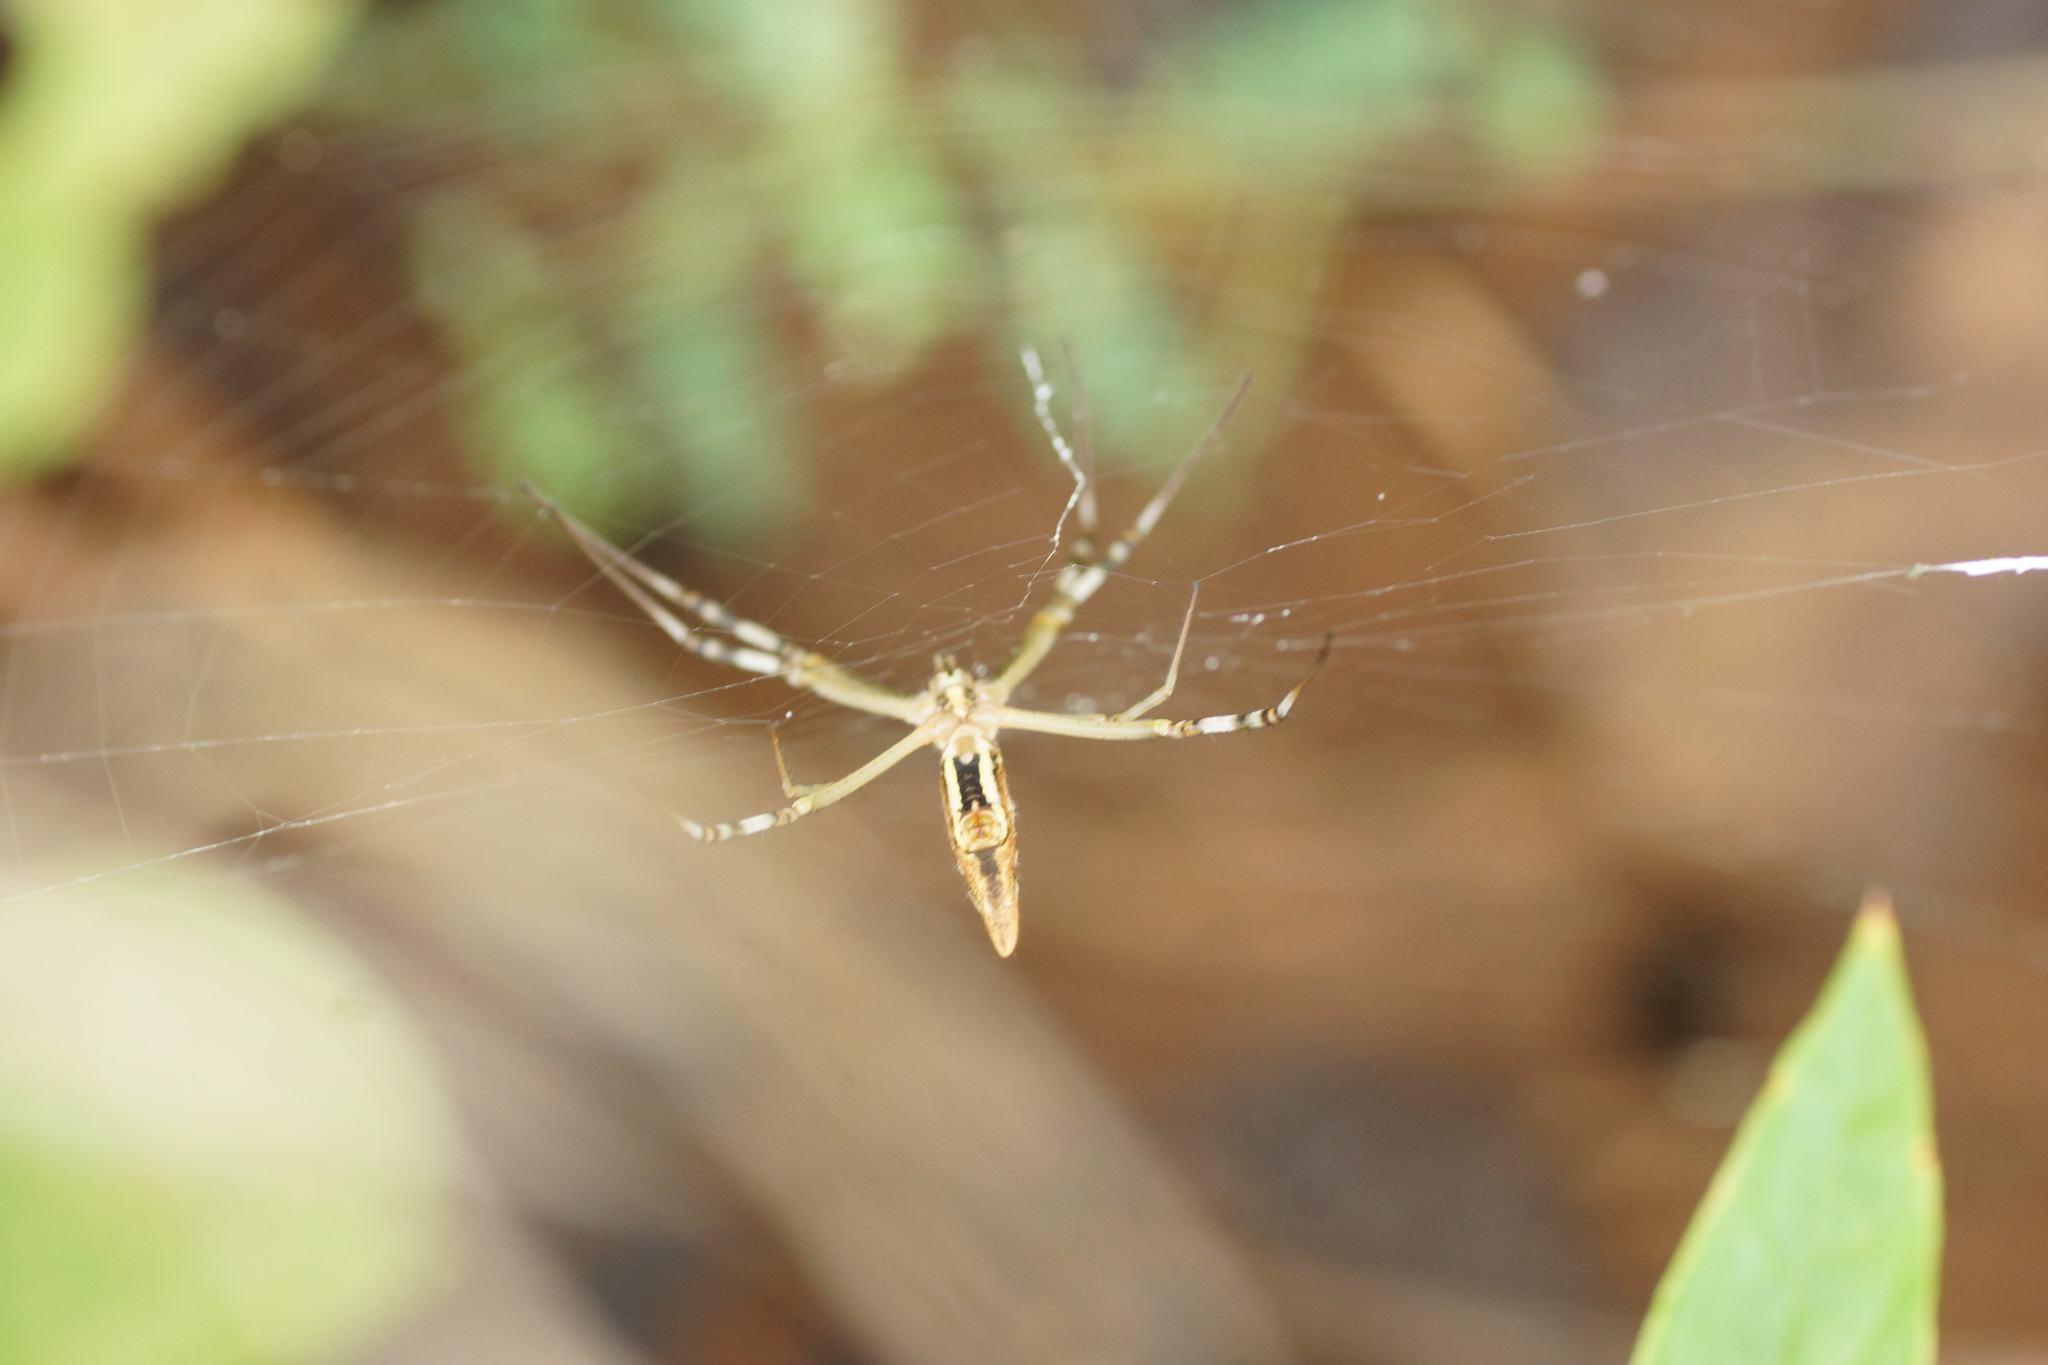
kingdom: Animalia
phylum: Arthropoda
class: Arachnida
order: Araneae
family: Araneidae
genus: Argiope
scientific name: Argiope protensa
